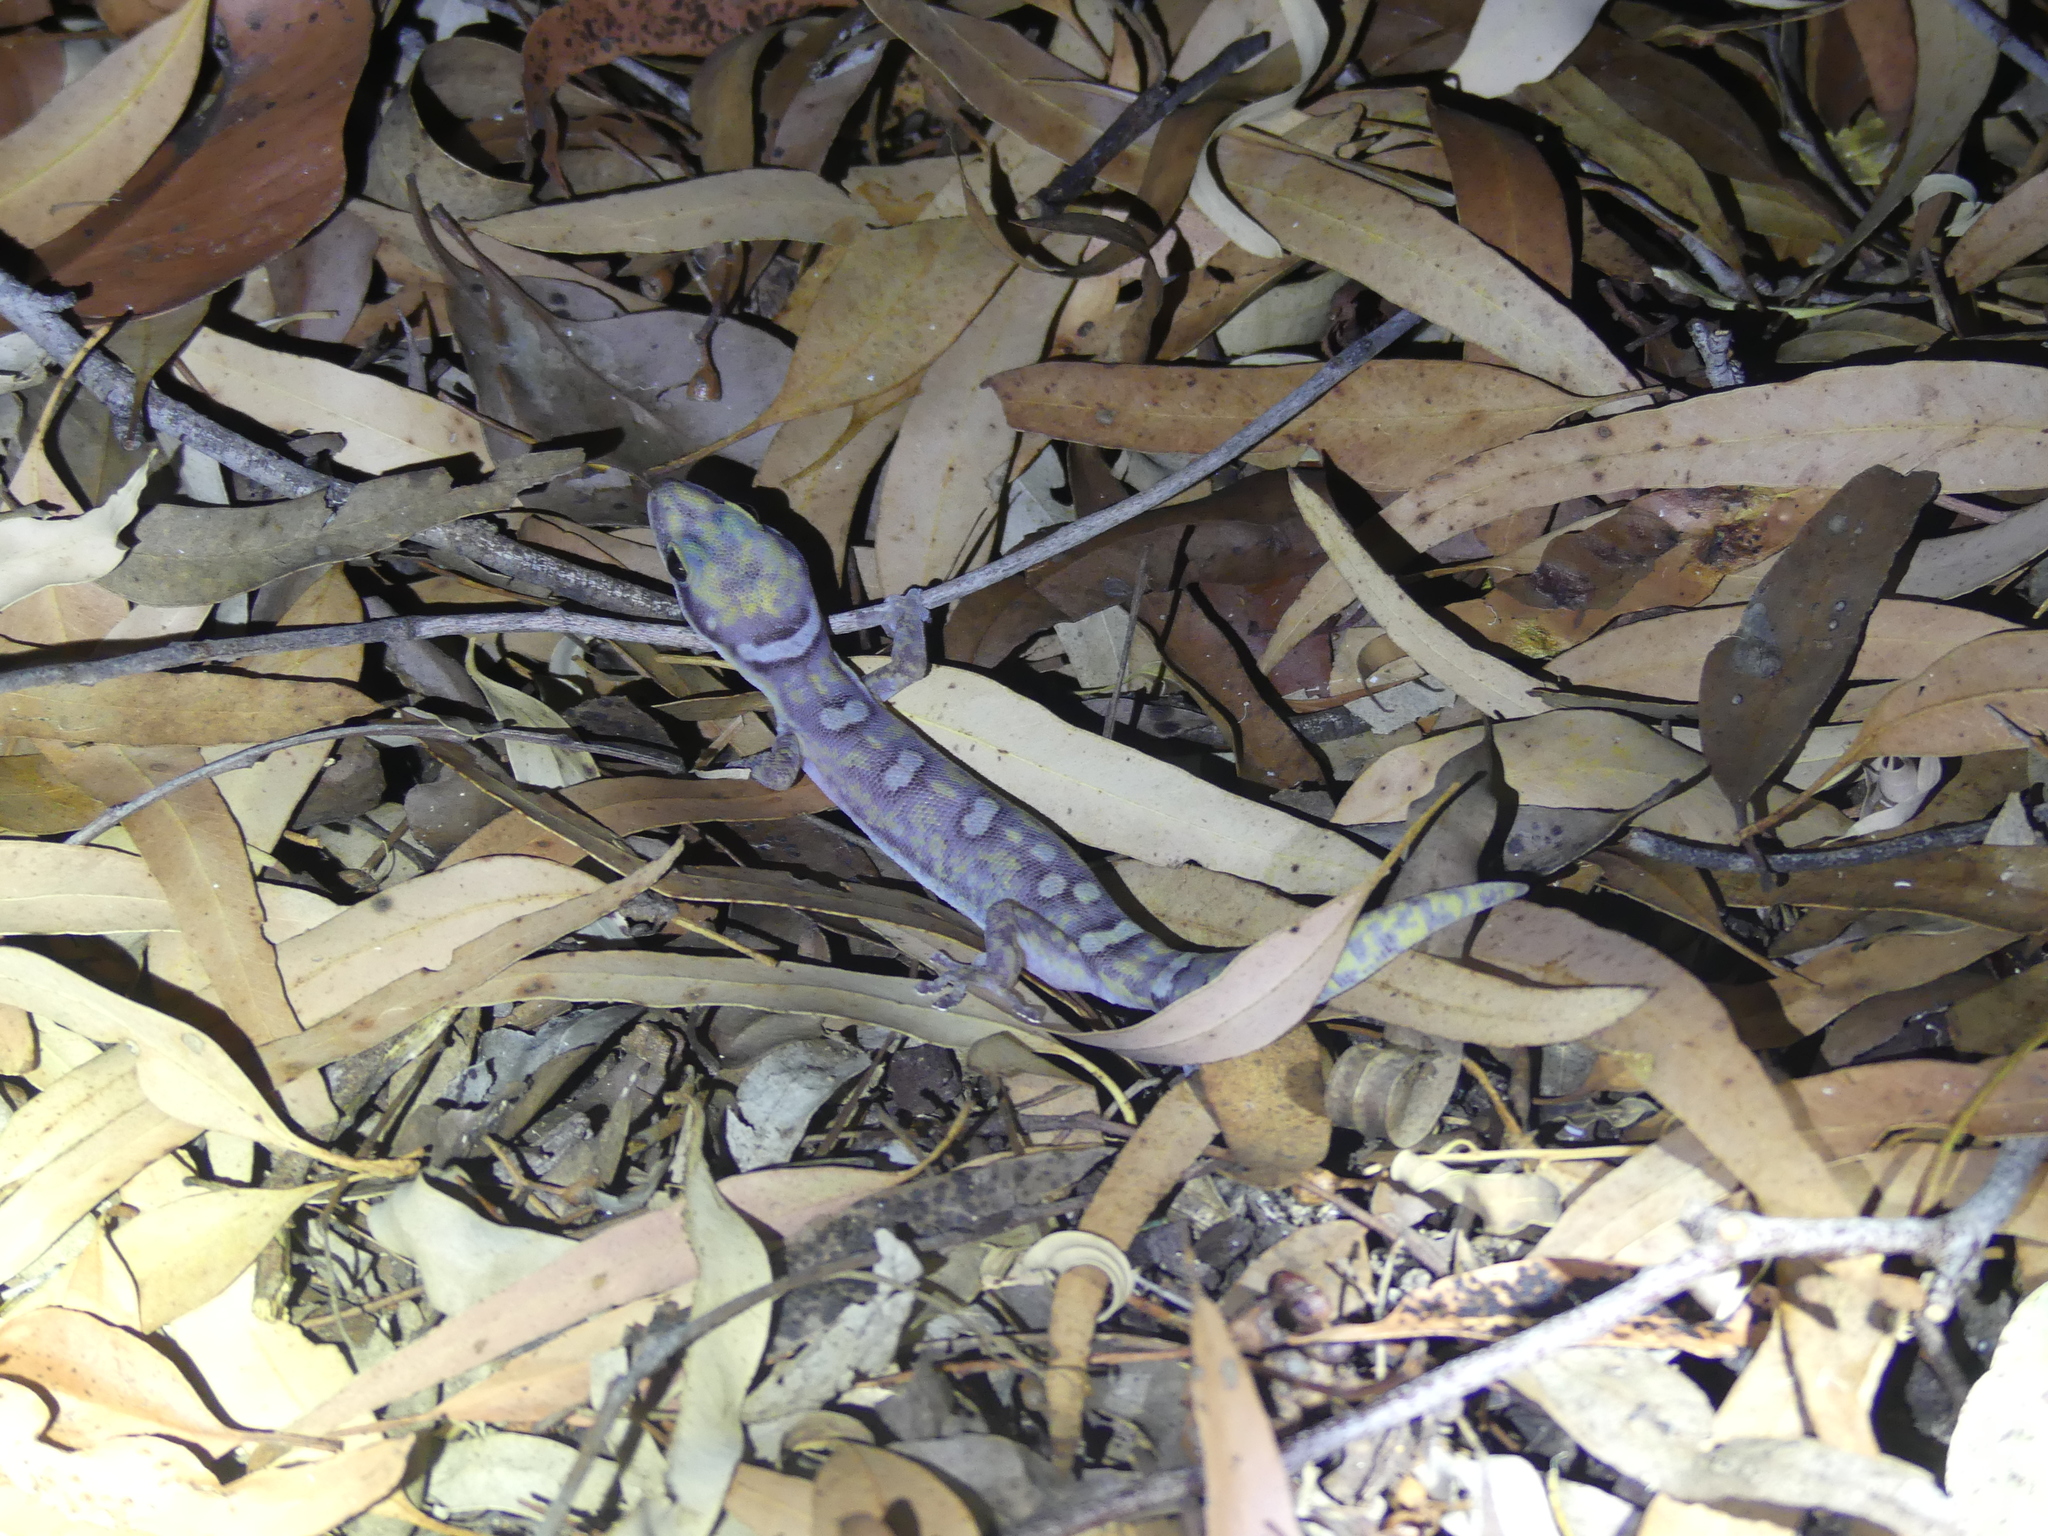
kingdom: Animalia
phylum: Chordata
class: Squamata
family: Diplodactylidae
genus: Oedura
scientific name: Oedura monilis
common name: Blotched gecko
